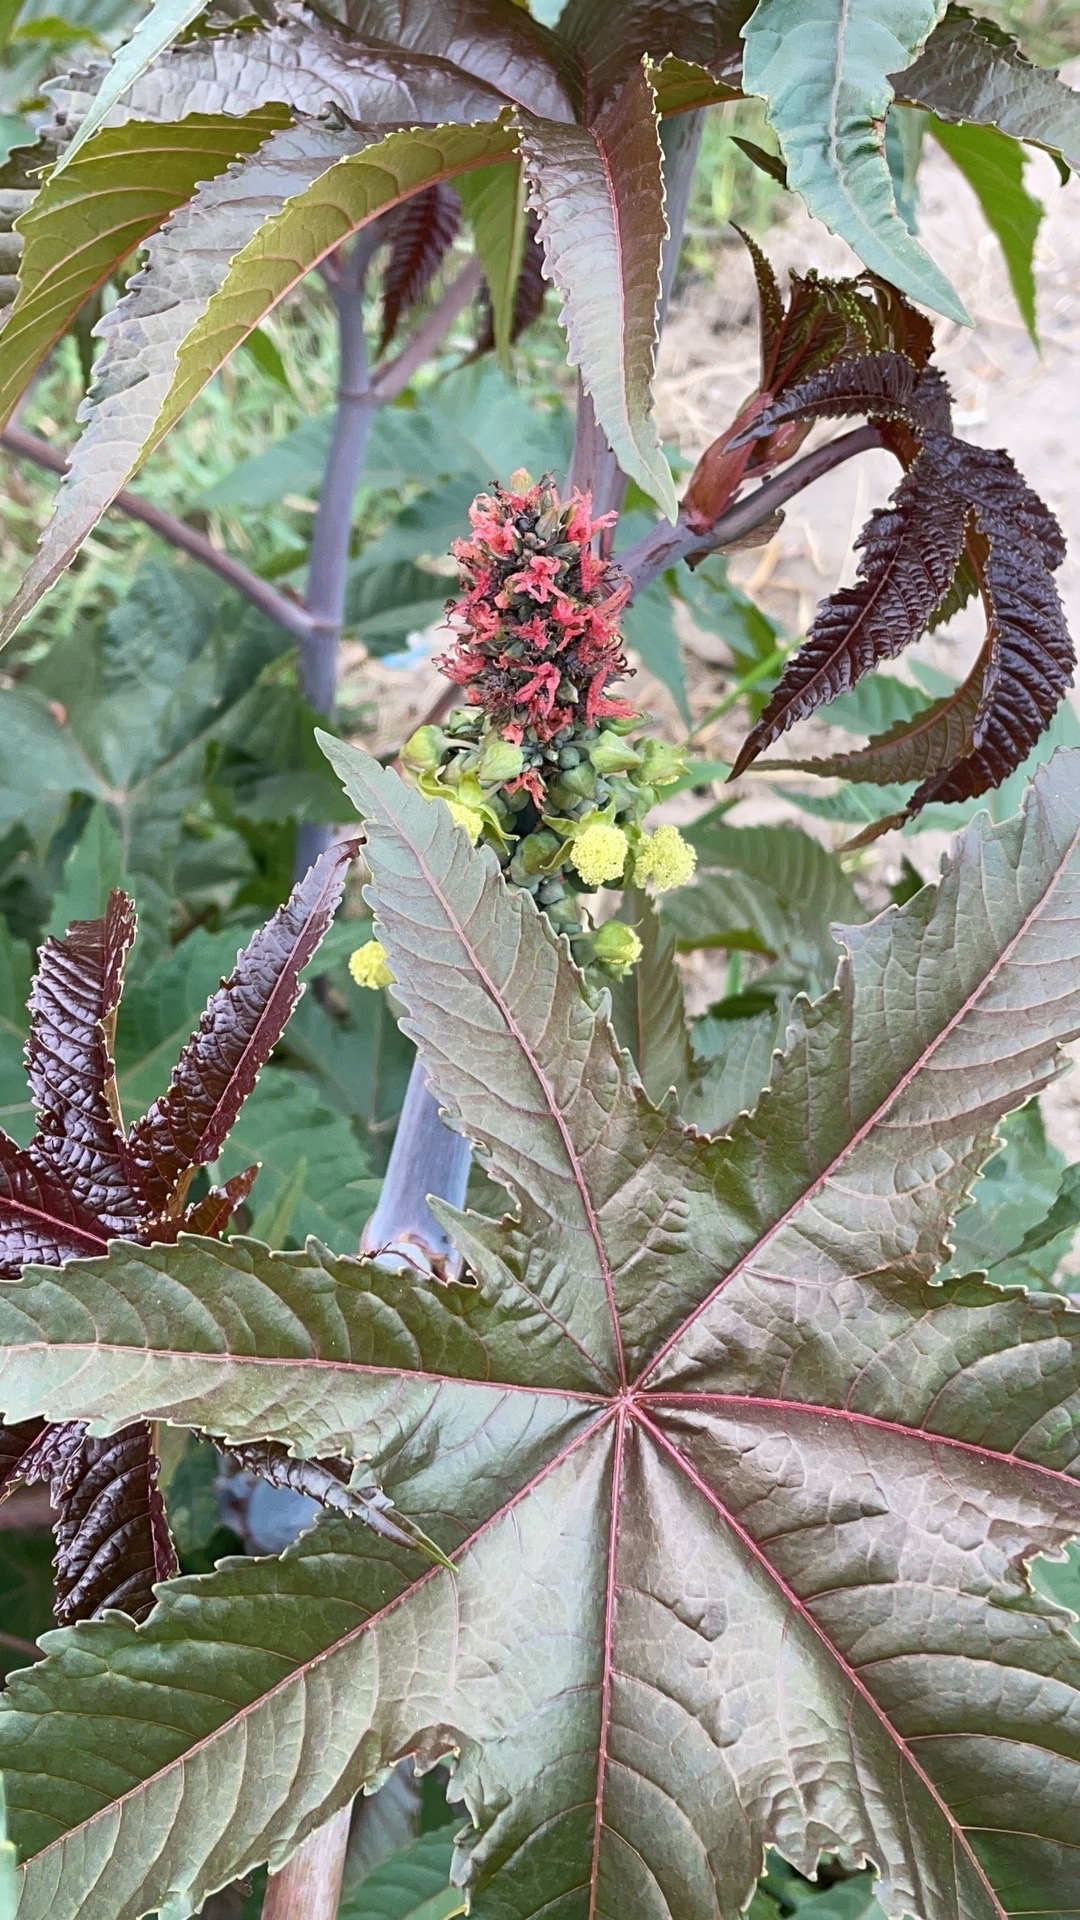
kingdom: Plantae
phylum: Tracheophyta
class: Magnoliopsida
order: Malpighiales
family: Euphorbiaceae
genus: Ricinus
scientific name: Ricinus communis
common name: Castor-oil-plant
